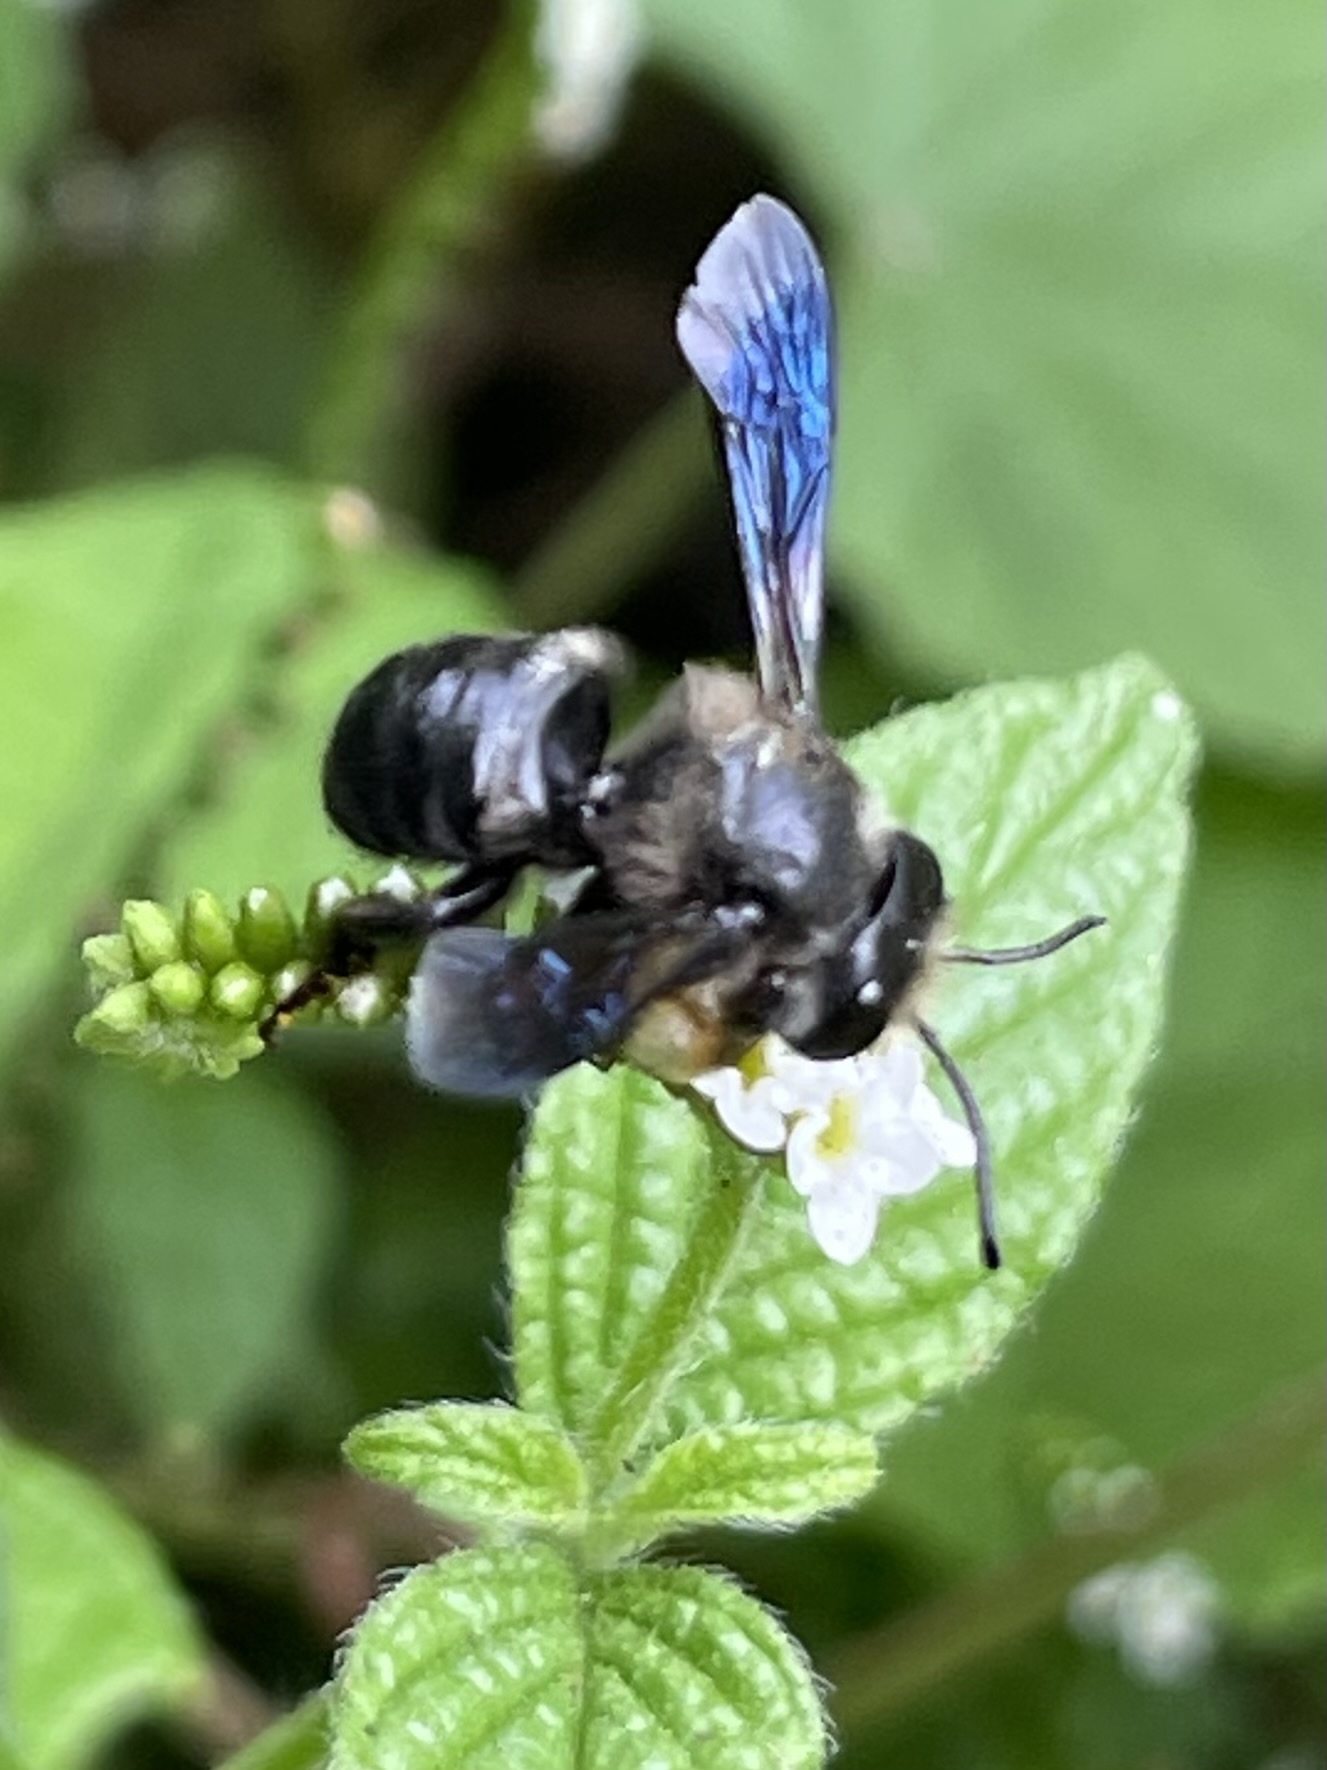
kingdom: Animalia
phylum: Arthropoda
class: Insecta
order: Hymenoptera
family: Megachilidae
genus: Megachile
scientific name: Megachile xylocopoides
